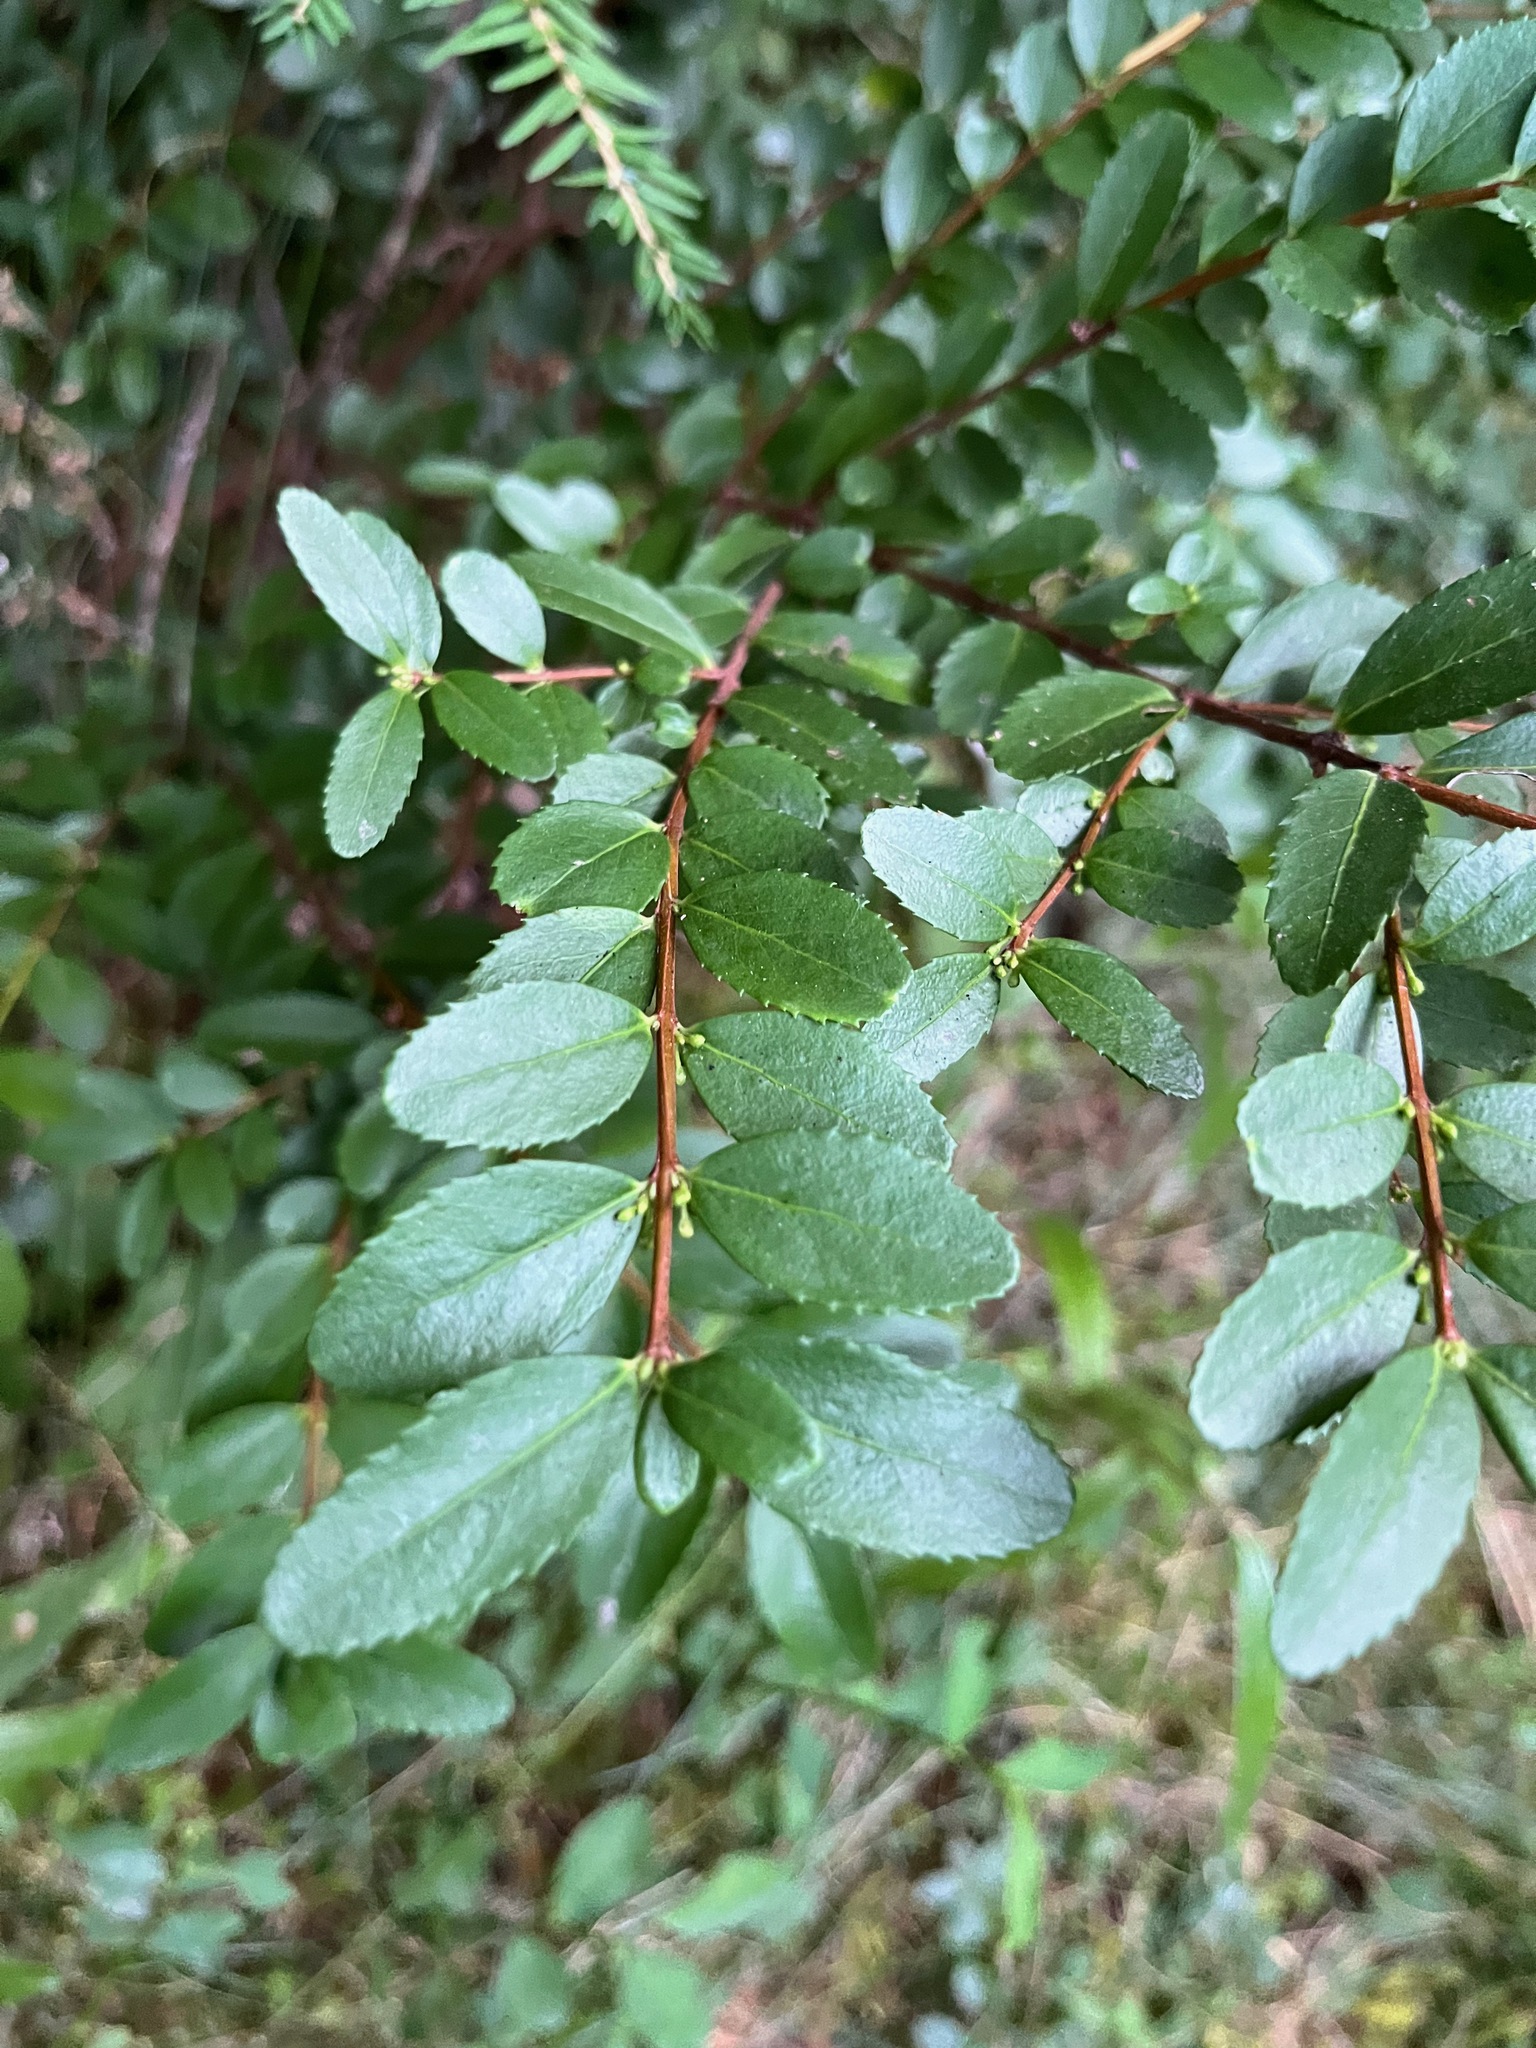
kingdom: Plantae
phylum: Tracheophyta
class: Magnoliopsida
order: Celastrales
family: Celastraceae
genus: Paxistima
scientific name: Paxistima myrsinites
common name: Mountain-lover
